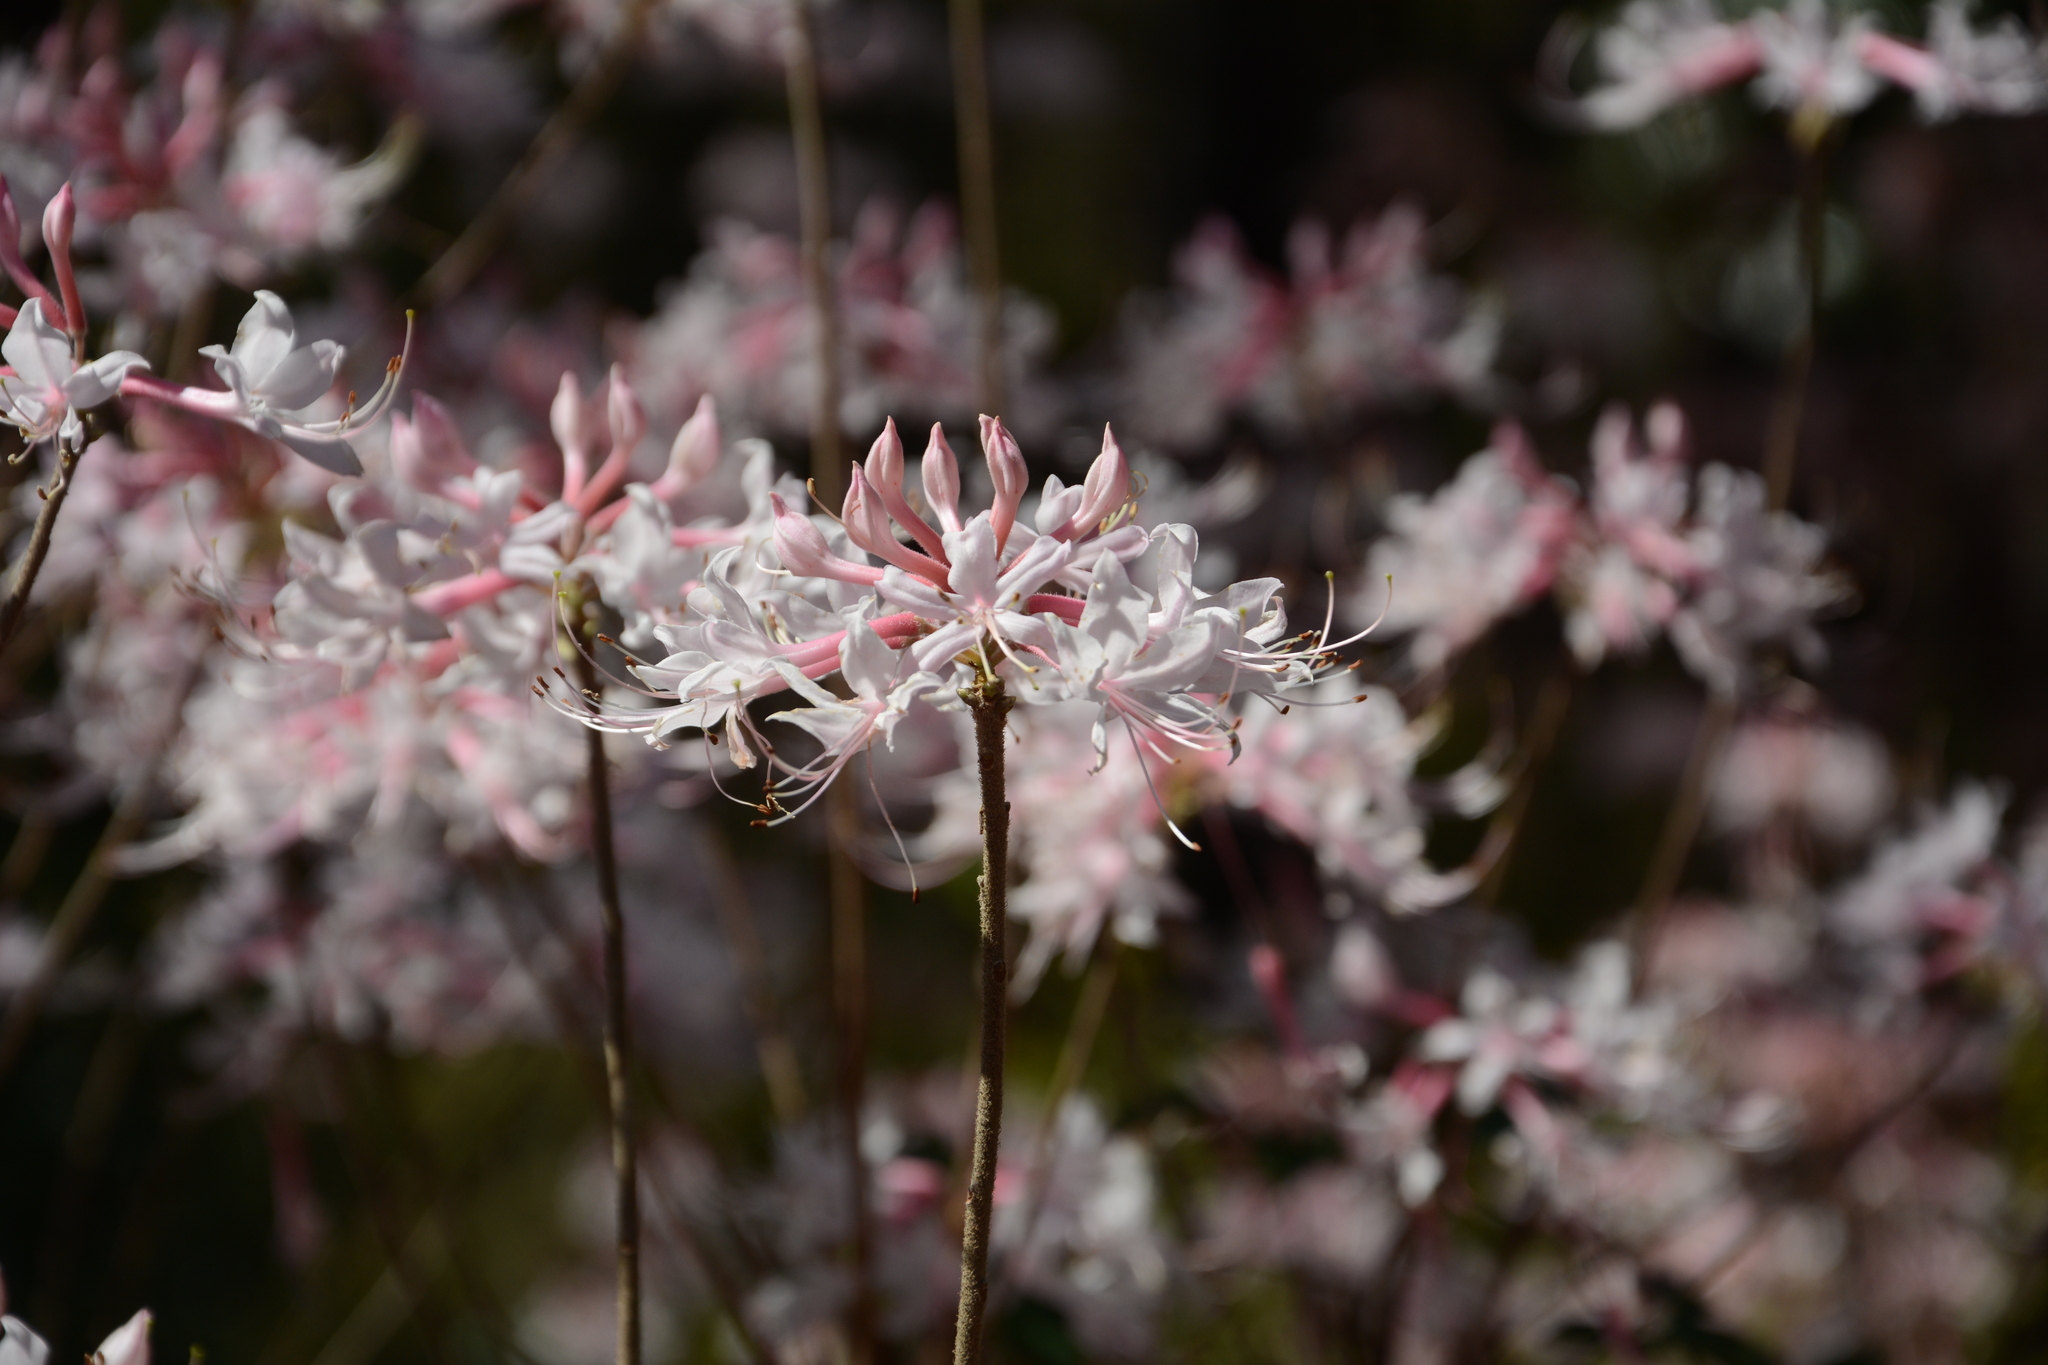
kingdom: Plantae
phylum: Tracheophyta
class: Magnoliopsida
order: Ericales
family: Ericaceae
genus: Rhododendron
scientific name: Rhododendron canescens
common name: Mountain azalea
